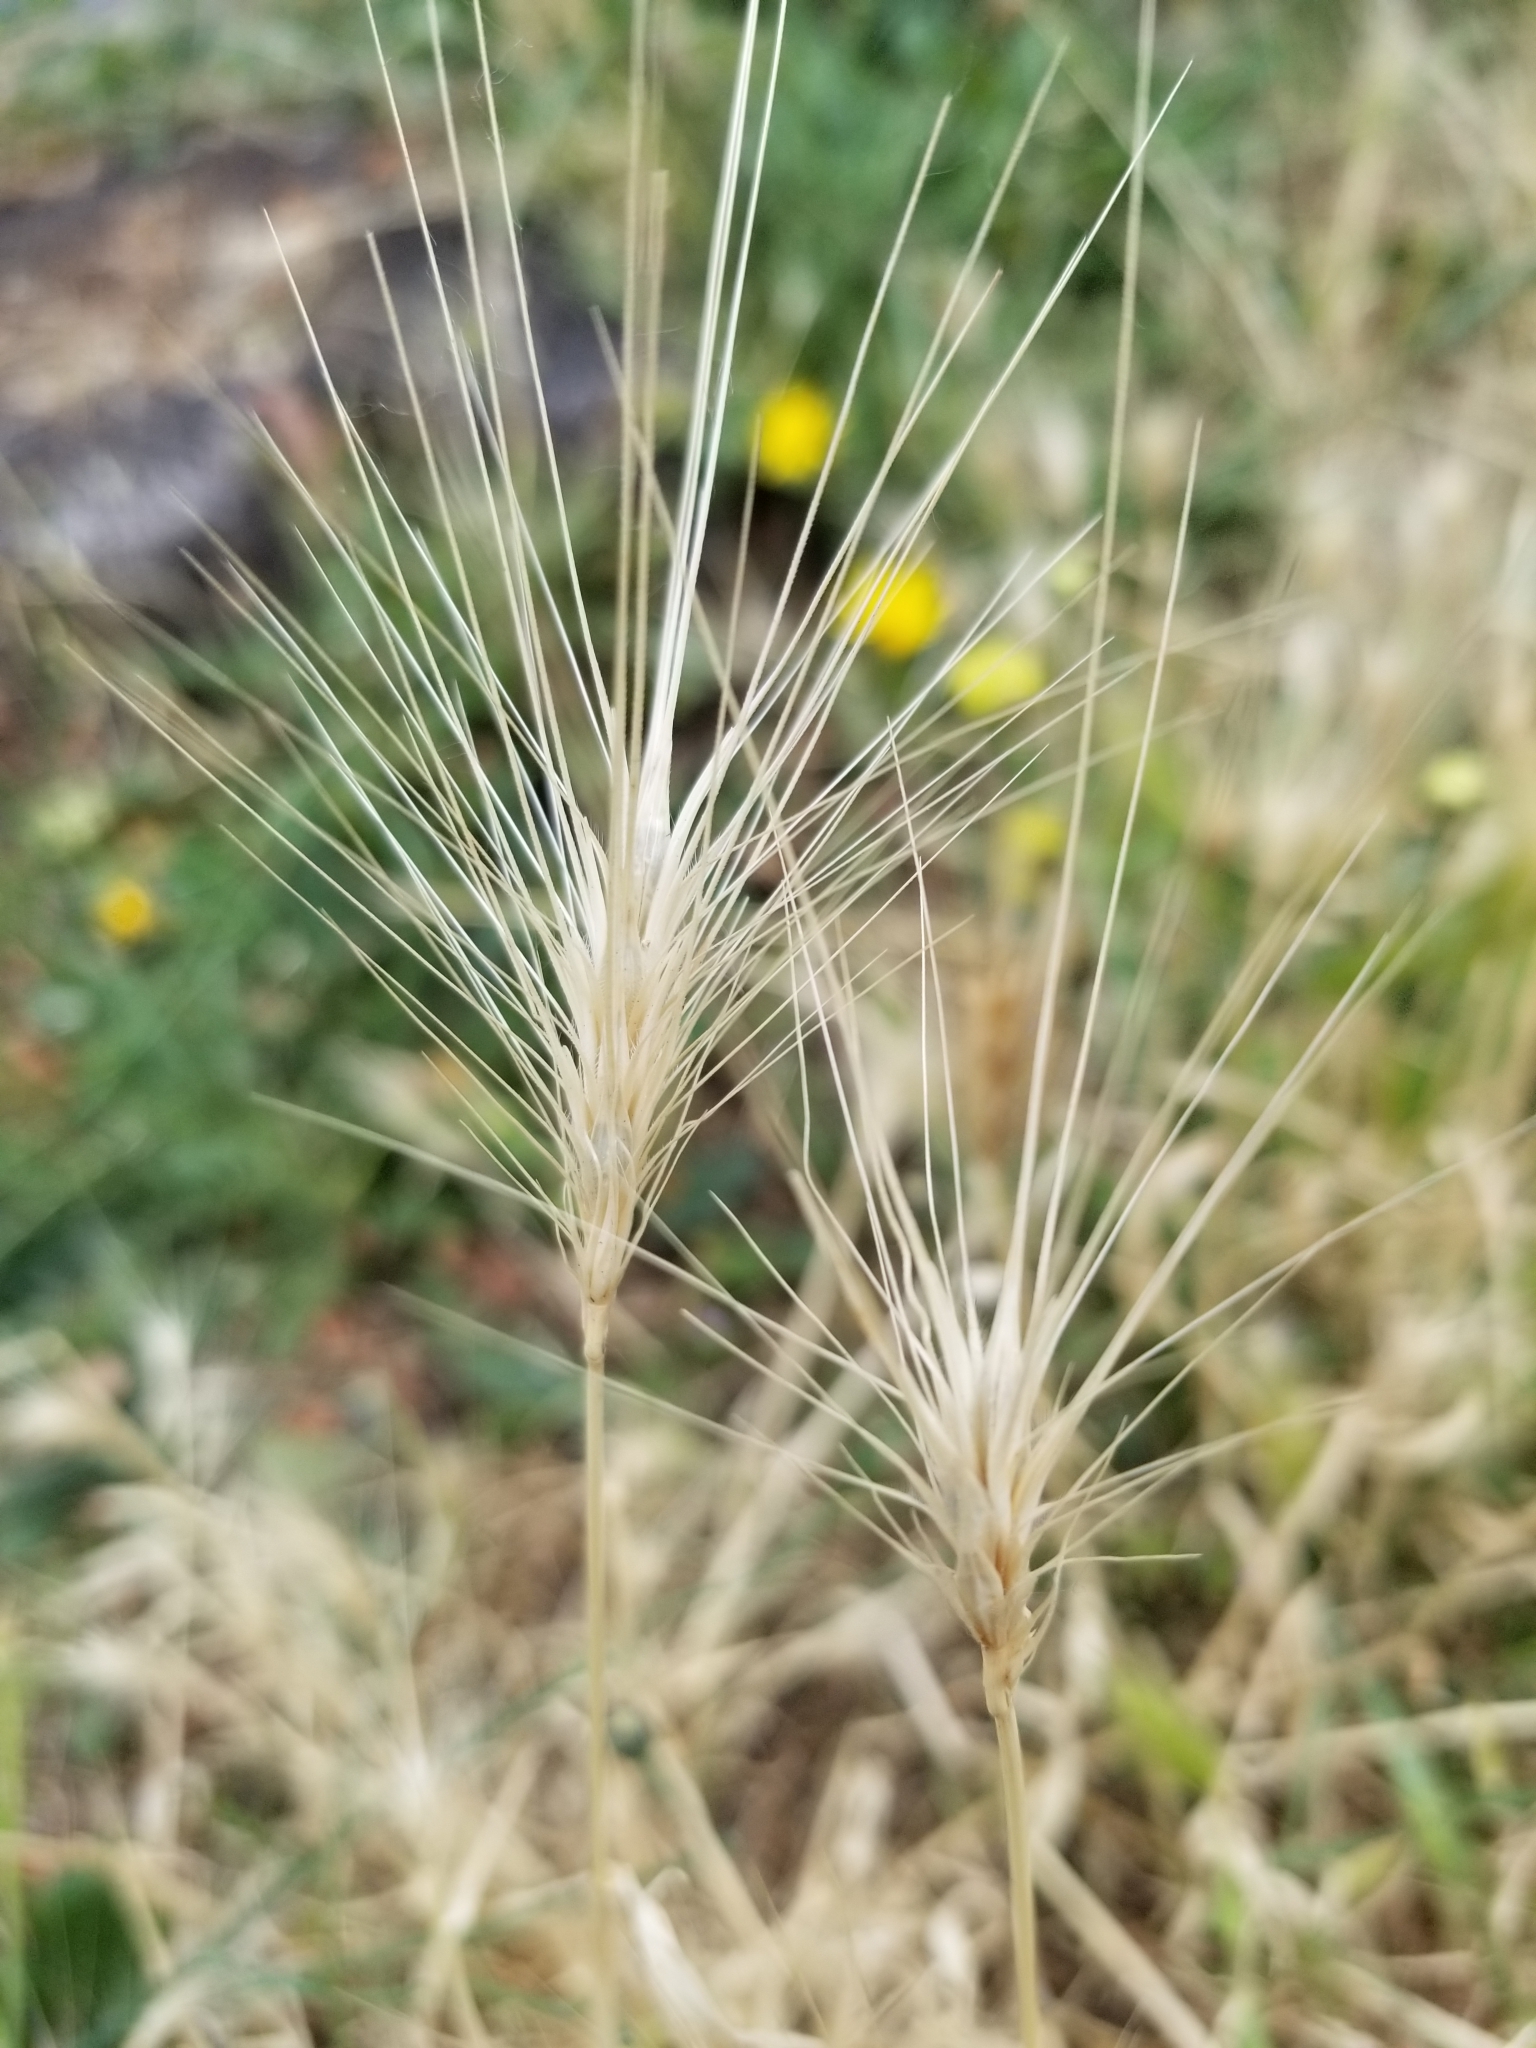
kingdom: Plantae
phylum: Tracheophyta
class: Liliopsida
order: Poales
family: Poaceae
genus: Hordeum
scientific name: Hordeum jubatum
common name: Foxtail barley
